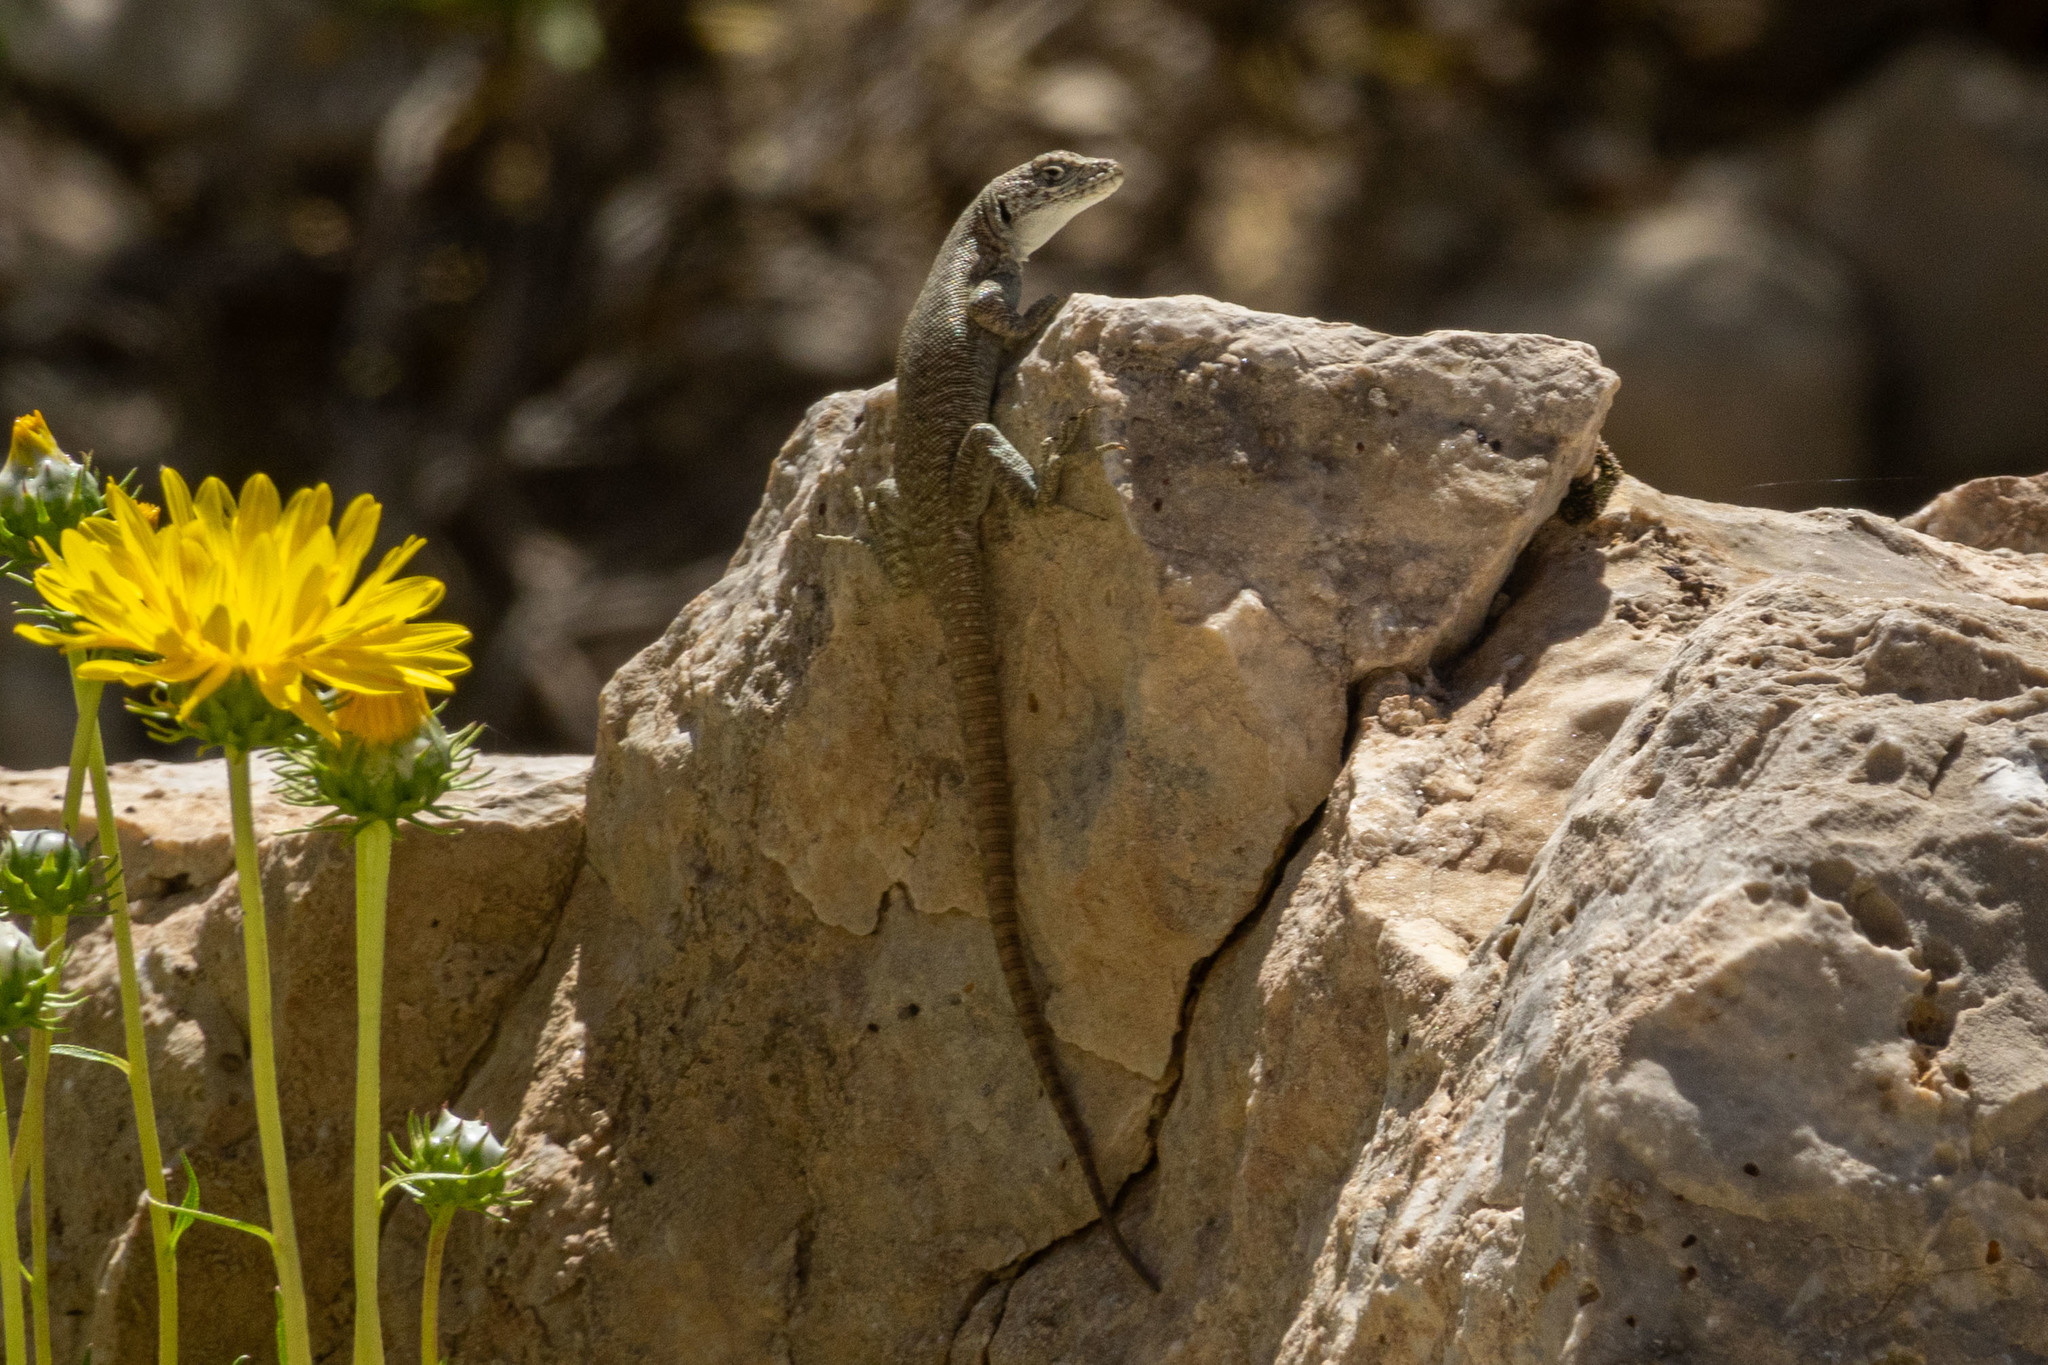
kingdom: Animalia
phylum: Chordata
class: Squamata
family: Liolaemidae
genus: Liolaemus
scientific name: Liolaemus austromendocinus
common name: Austromendocino tree iguana
